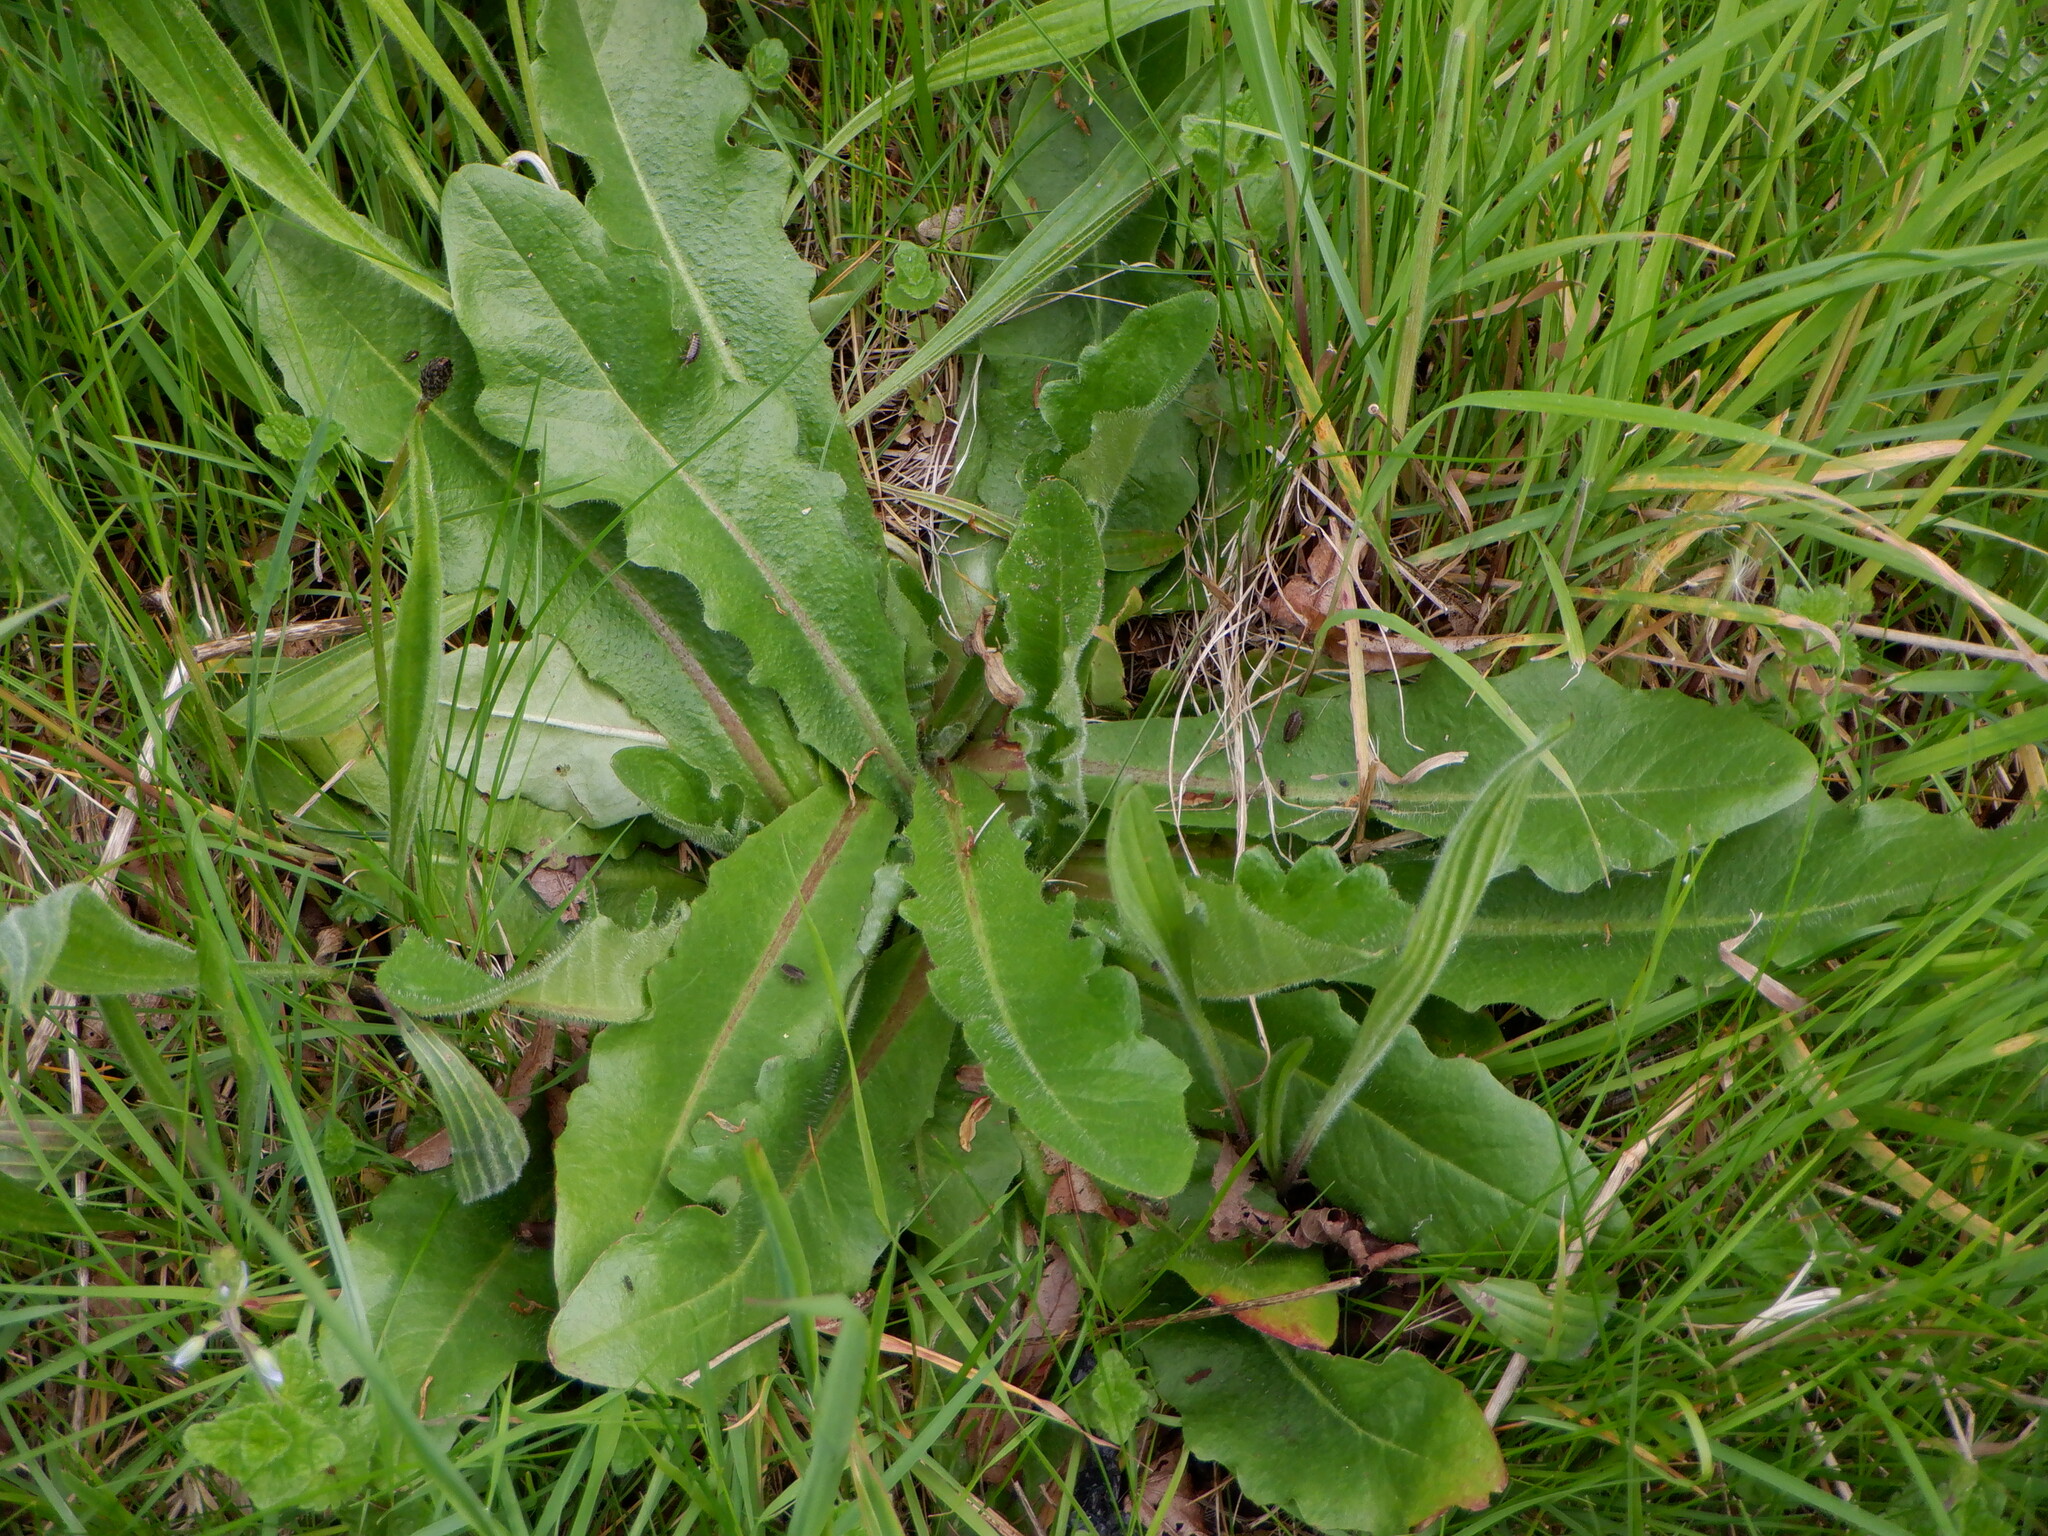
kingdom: Plantae
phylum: Tracheophyta
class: Magnoliopsida
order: Asterales
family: Asteraceae
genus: Hypochaeris
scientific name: Hypochaeris radicata
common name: Flatweed
